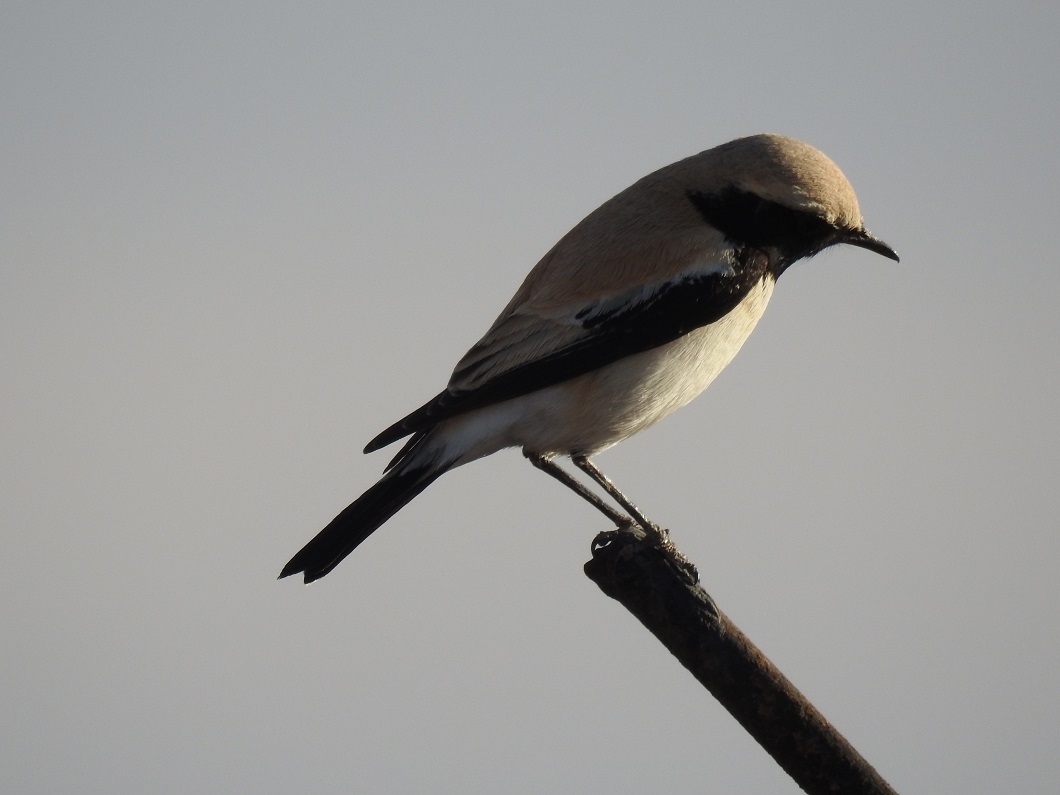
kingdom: Animalia
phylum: Chordata
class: Aves
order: Passeriformes
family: Muscicapidae
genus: Oenanthe
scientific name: Oenanthe deserti
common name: Desert wheatear
